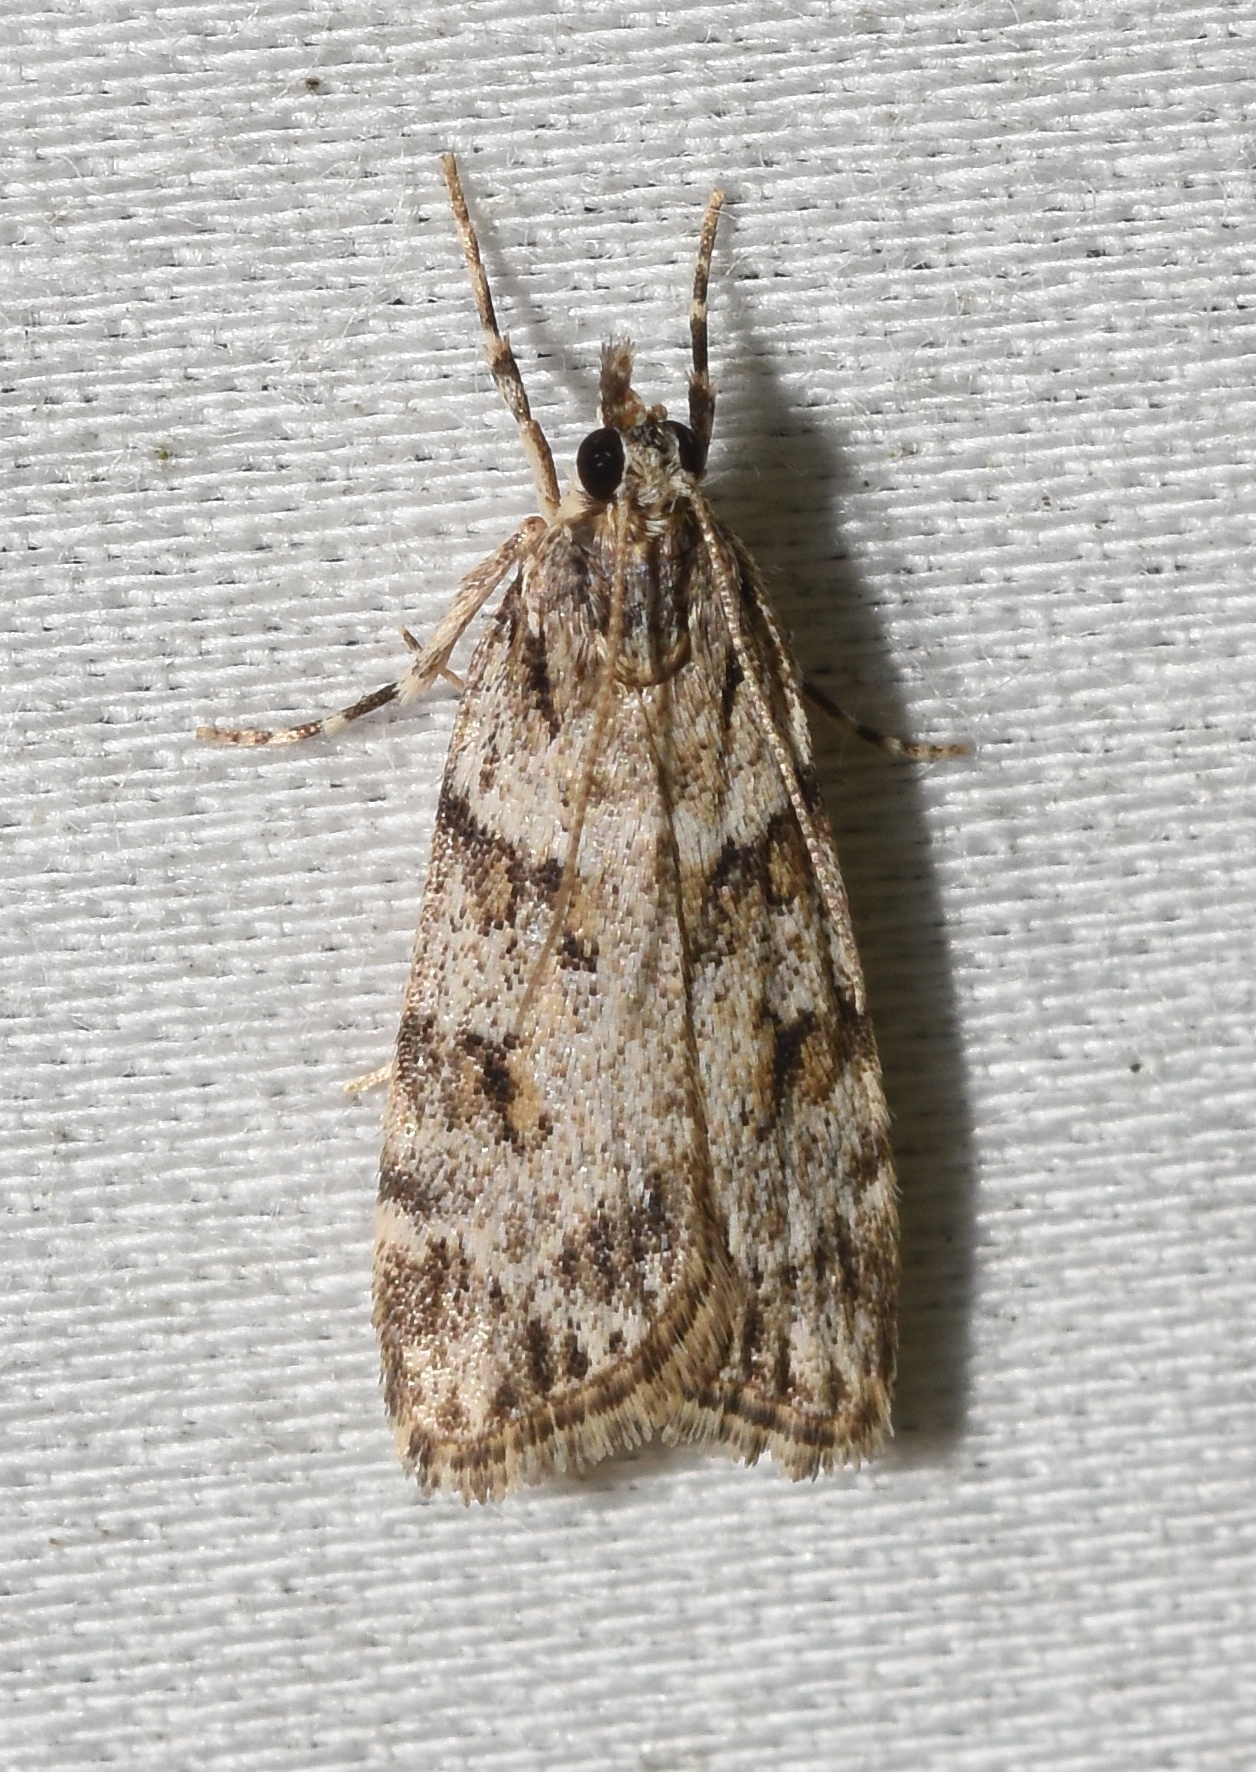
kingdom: Animalia
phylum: Arthropoda
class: Insecta
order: Lepidoptera
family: Crambidae
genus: Scoparia
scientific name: Scoparia biplagialis
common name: Double-striped scoparia moth
